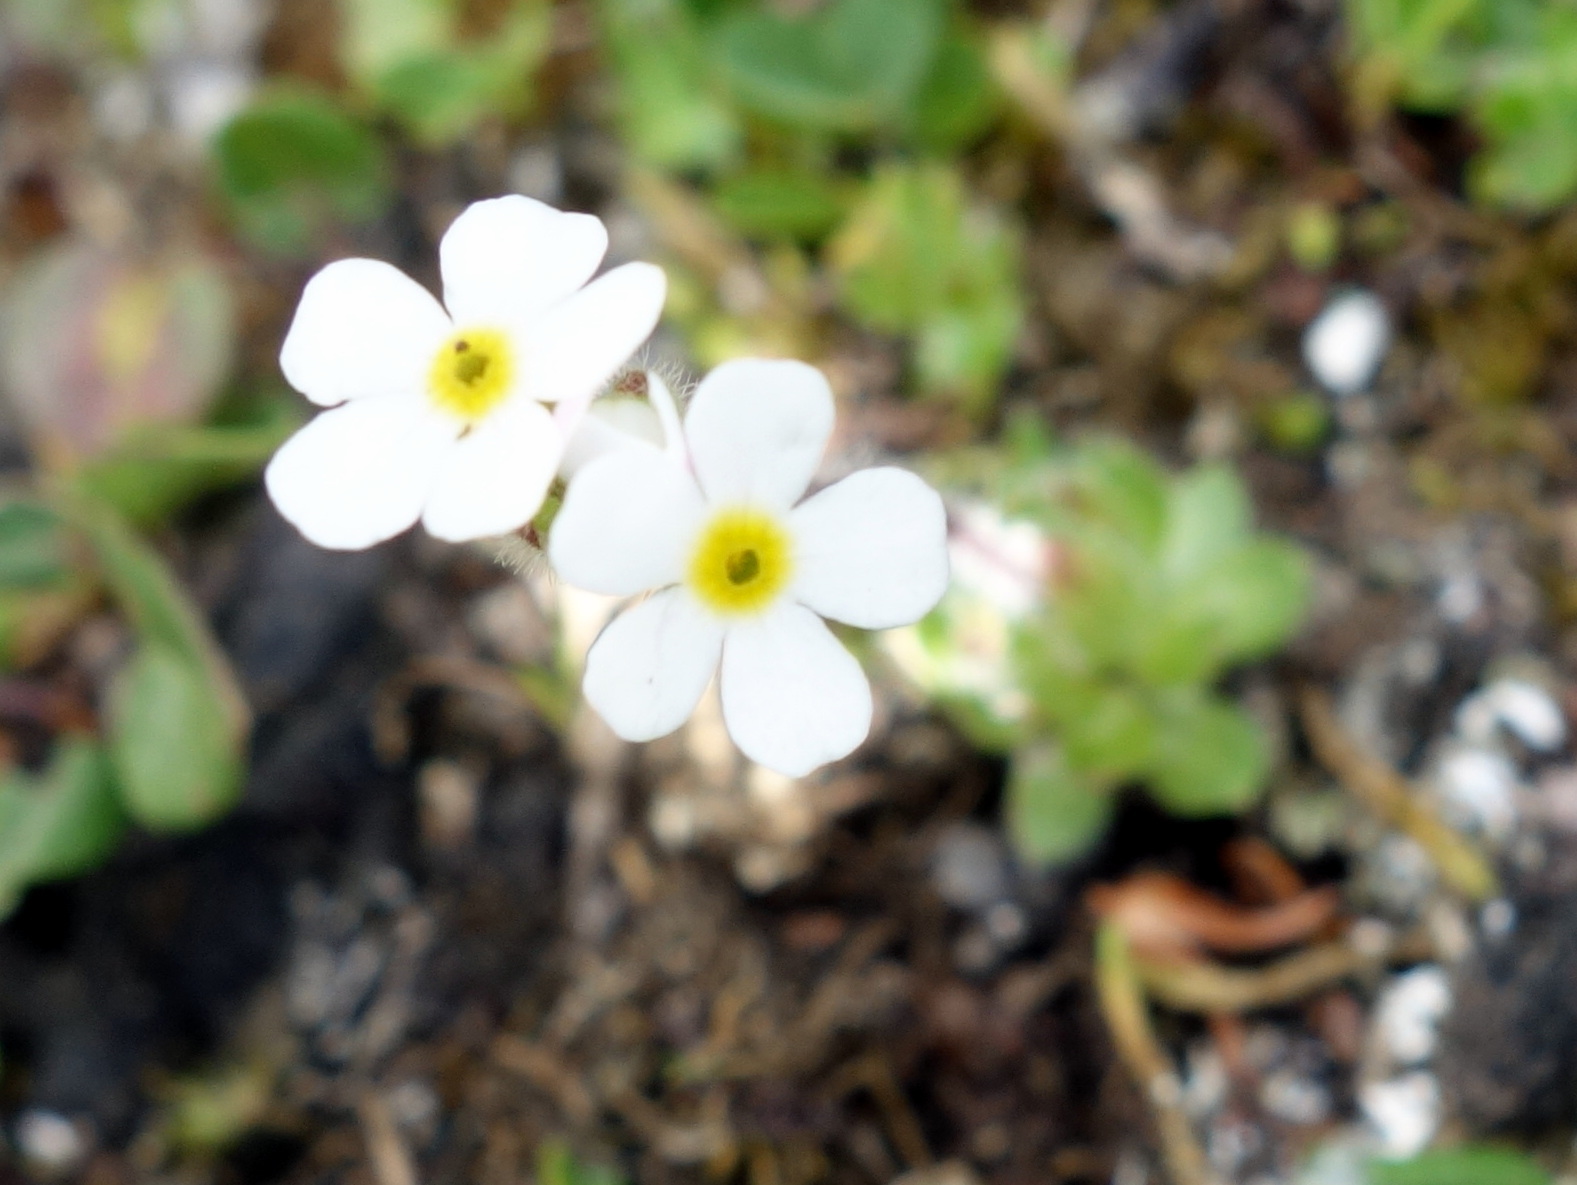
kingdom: Plantae
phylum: Tracheophyta
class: Magnoliopsida
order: Ericales
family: Primulaceae
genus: Androsace
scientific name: Androsace chamaejasme
